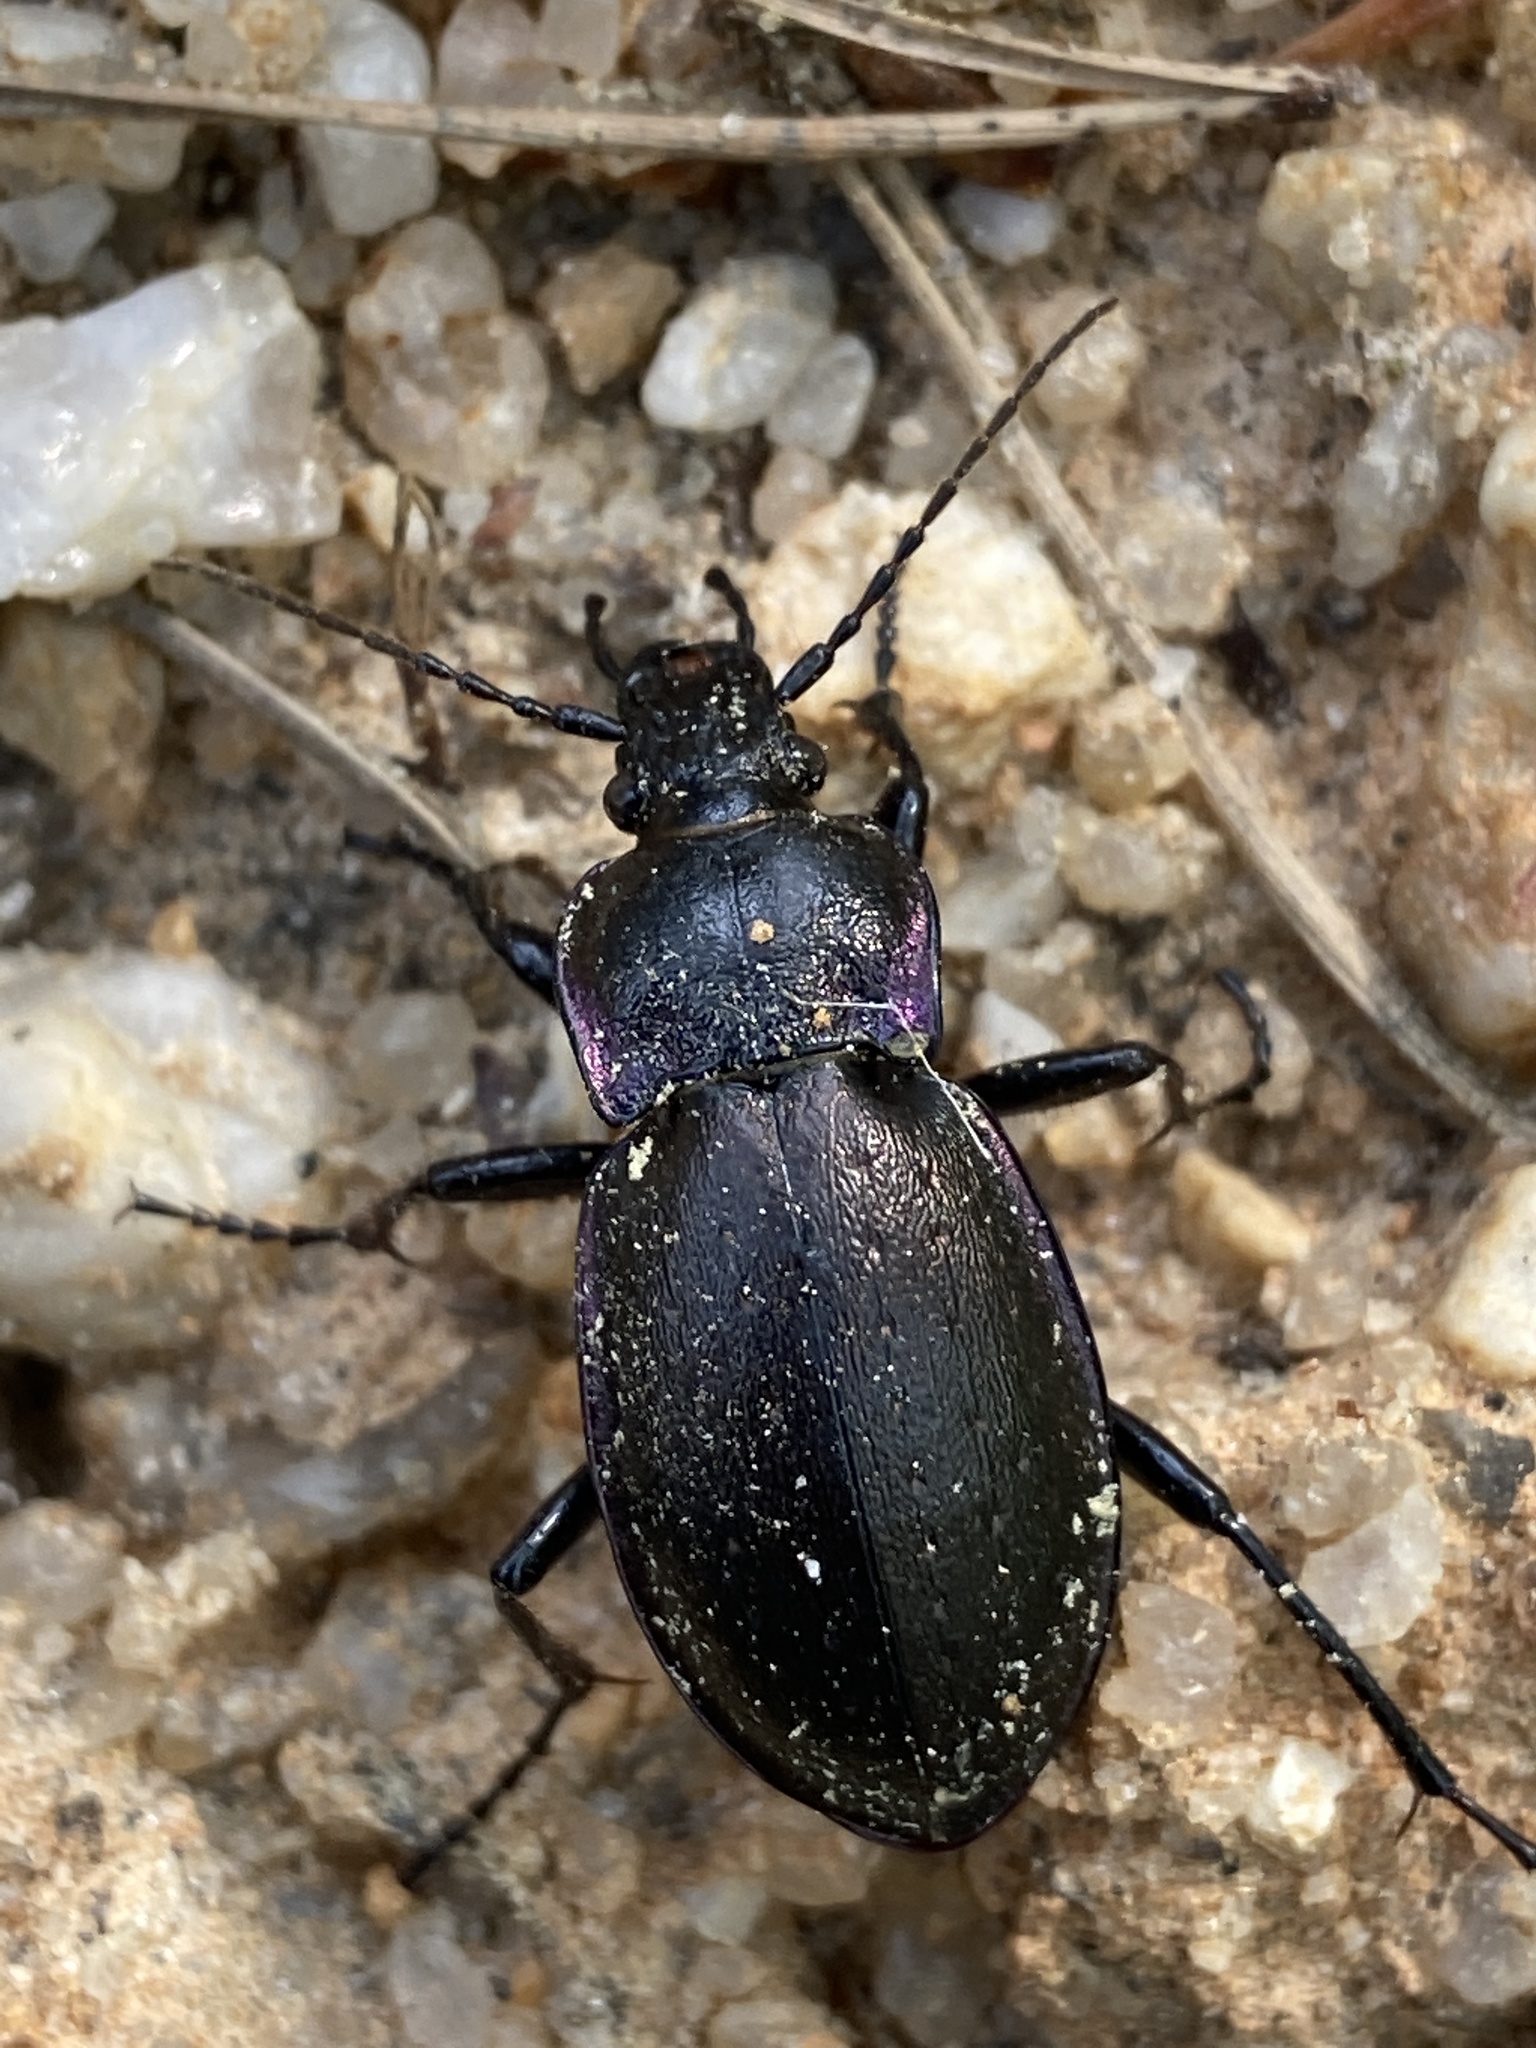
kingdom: Animalia
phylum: Arthropoda
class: Insecta
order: Coleoptera
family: Carabidae
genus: Carabus
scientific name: Carabus nemoralis
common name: European ground beetle
